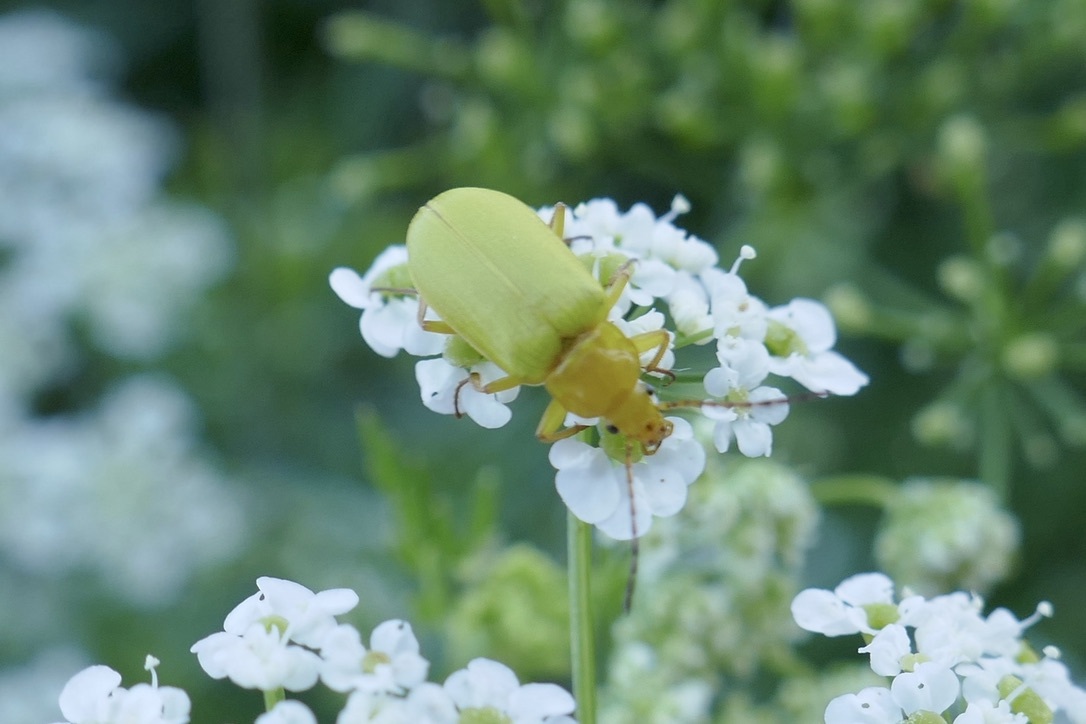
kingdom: Animalia
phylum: Arthropoda
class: Insecta
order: Coleoptera
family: Tenebrionidae
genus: Cteniopus
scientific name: Cteniopus sulphureus
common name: Sulphur beetle
